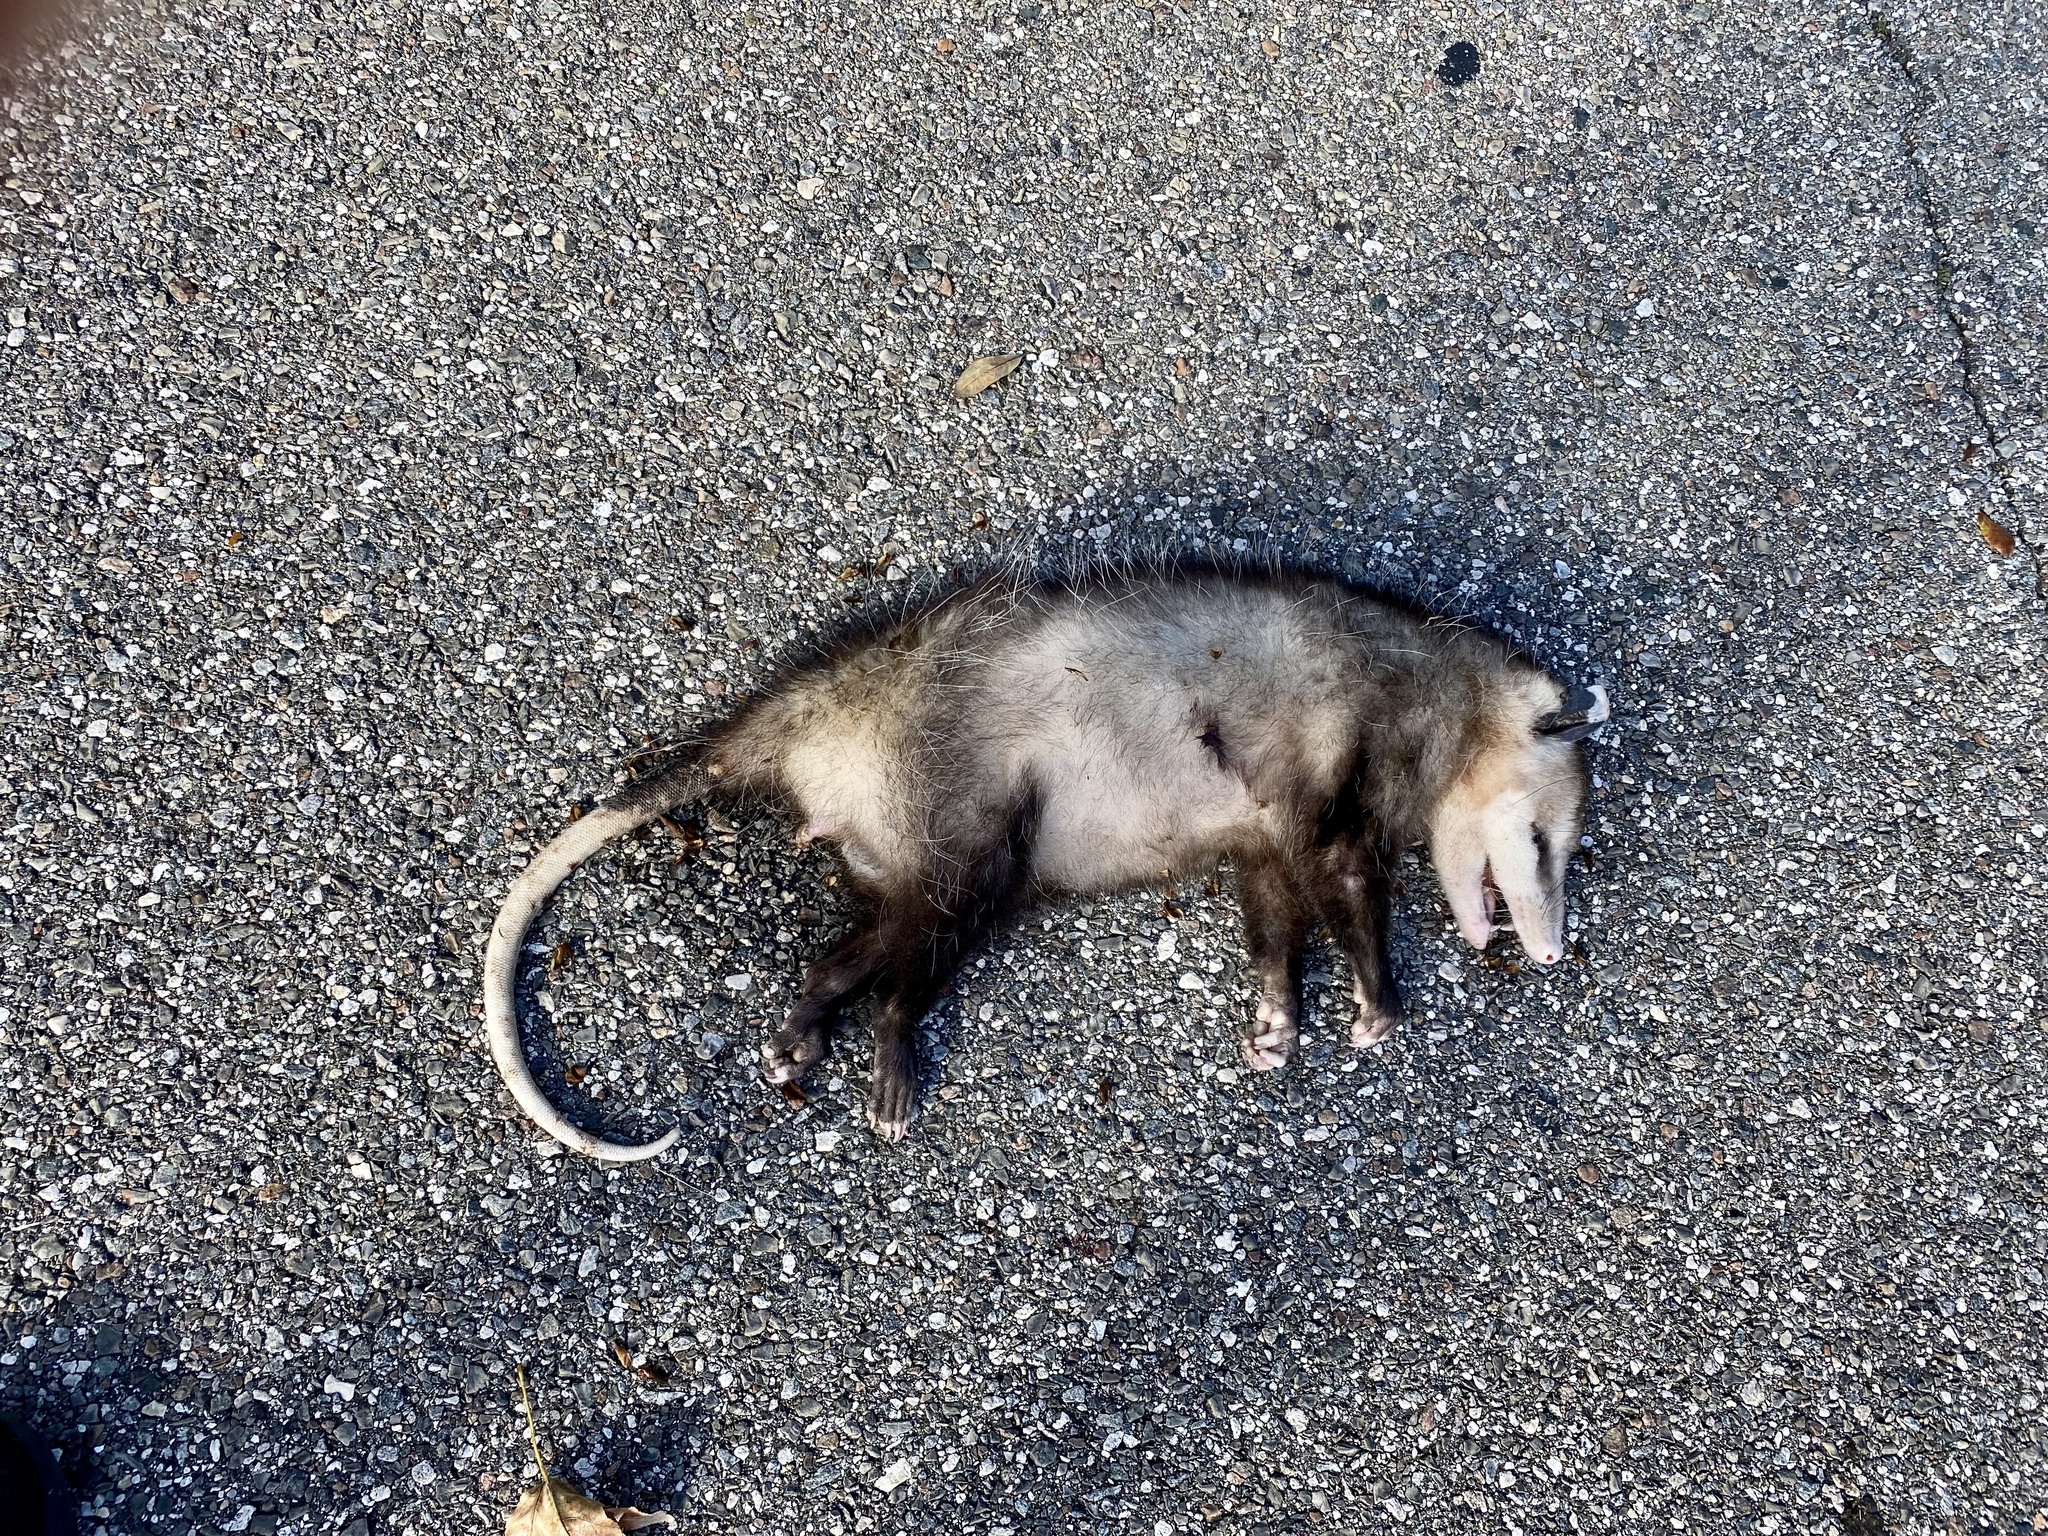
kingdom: Animalia
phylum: Chordata
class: Mammalia
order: Didelphimorphia
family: Didelphidae
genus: Didelphis
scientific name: Didelphis virginiana
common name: Virginia opossum
